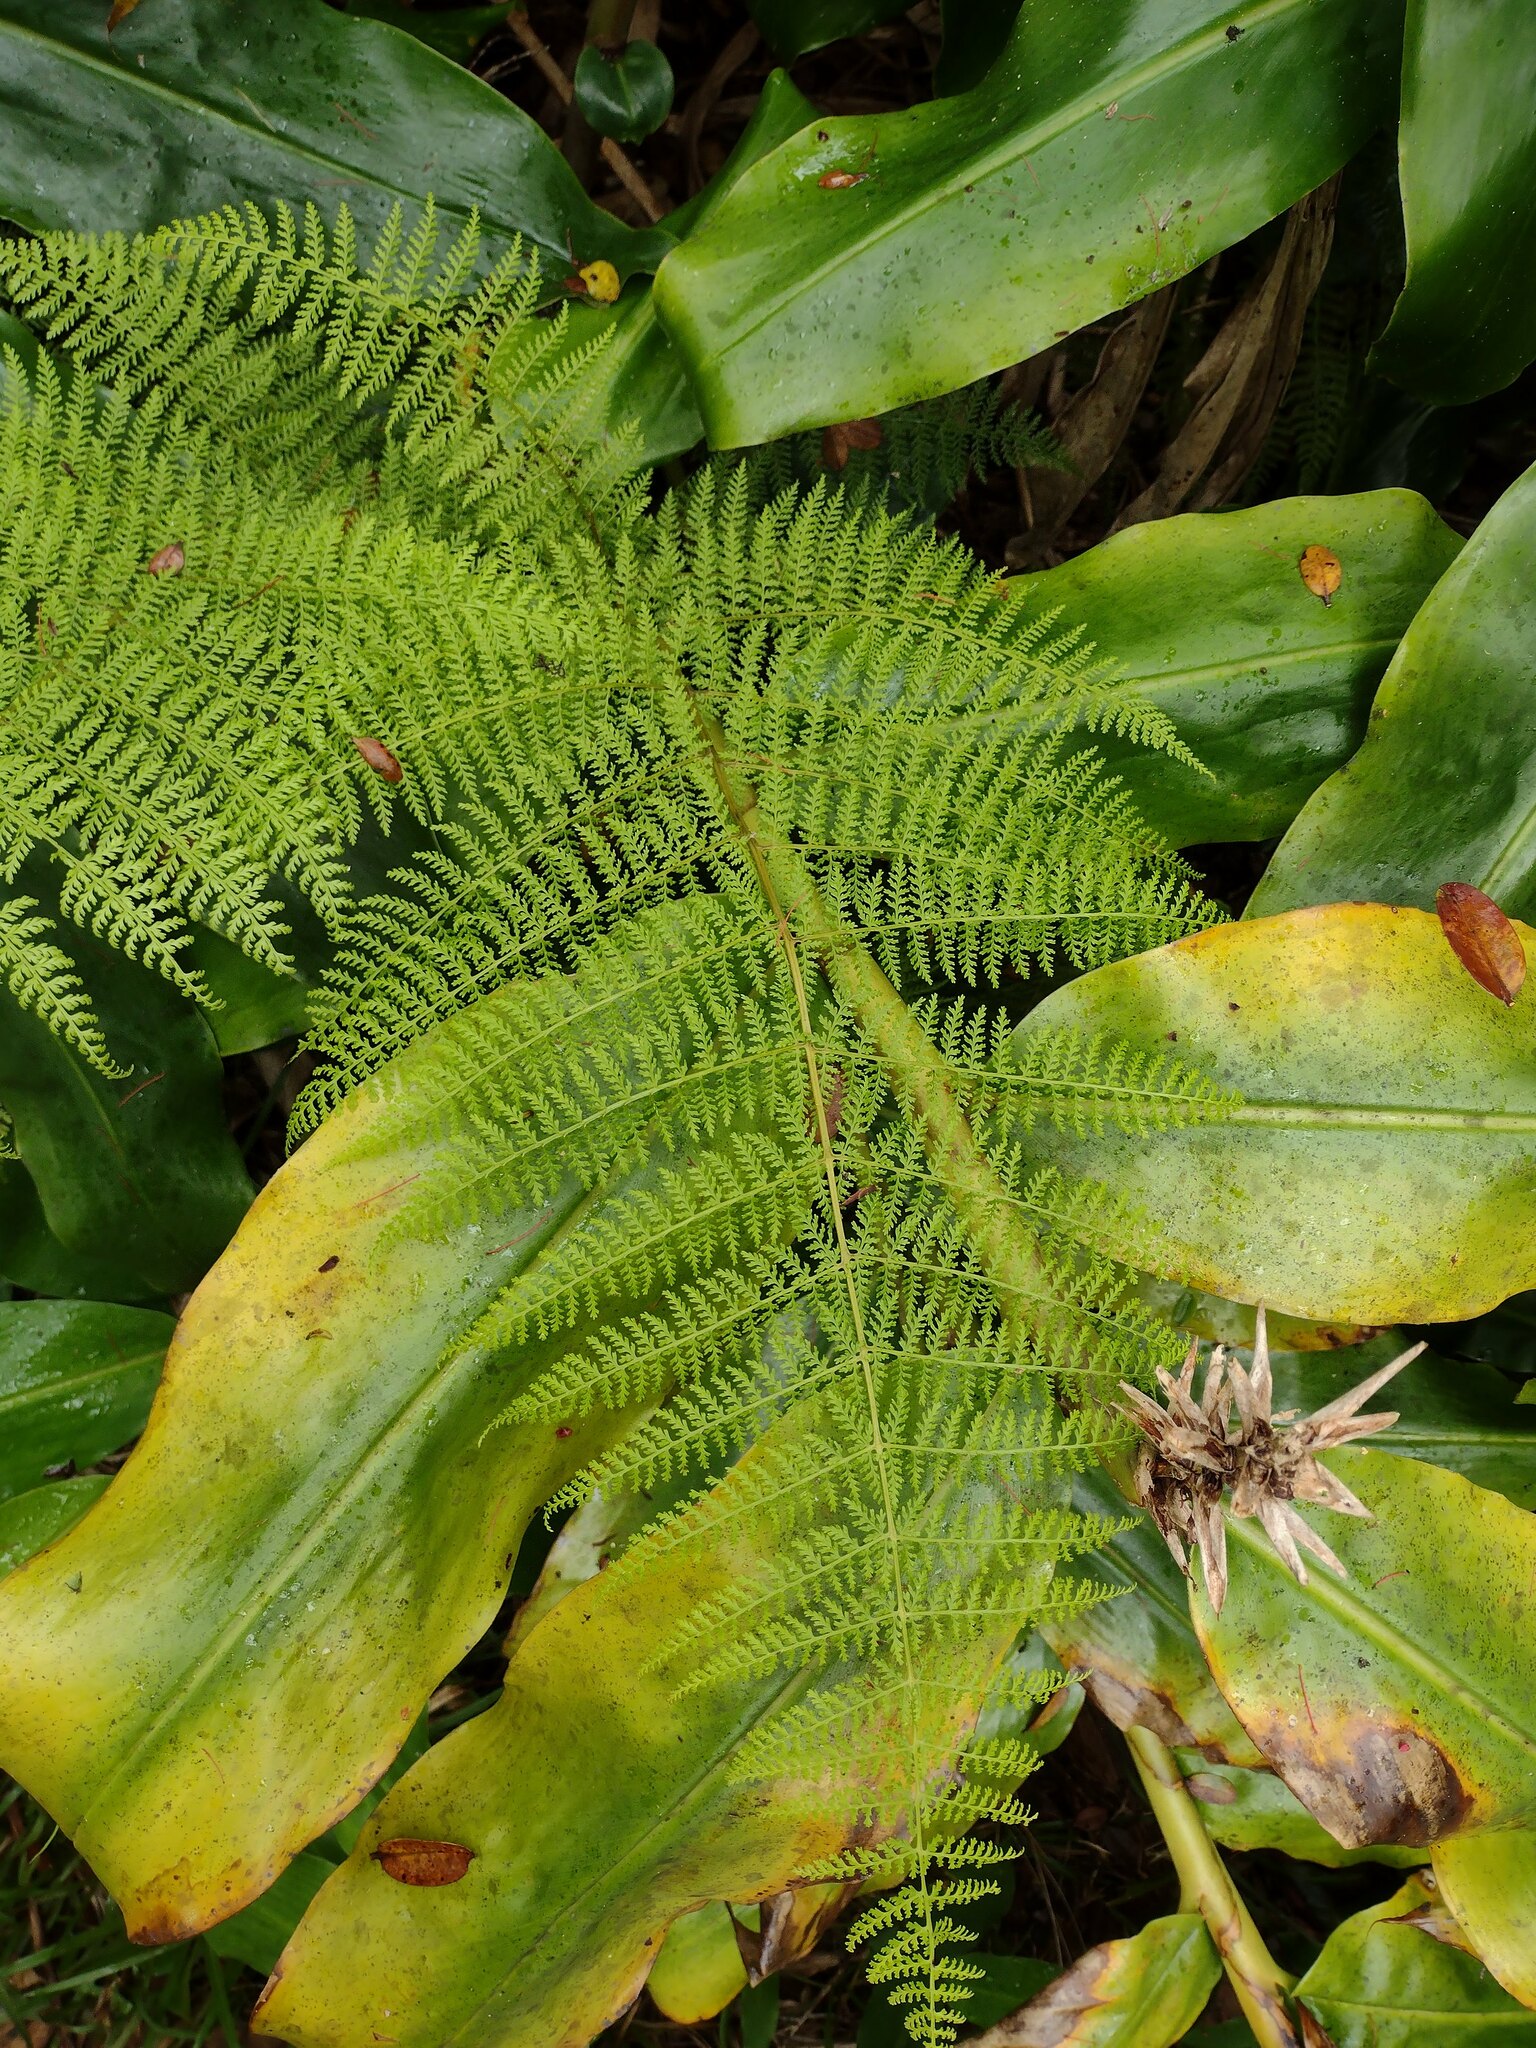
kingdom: Plantae
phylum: Tracheophyta
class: Polypodiopsida
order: Polypodiales
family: Athyriaceae
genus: Athyrium
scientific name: Athyrium microphyllum
